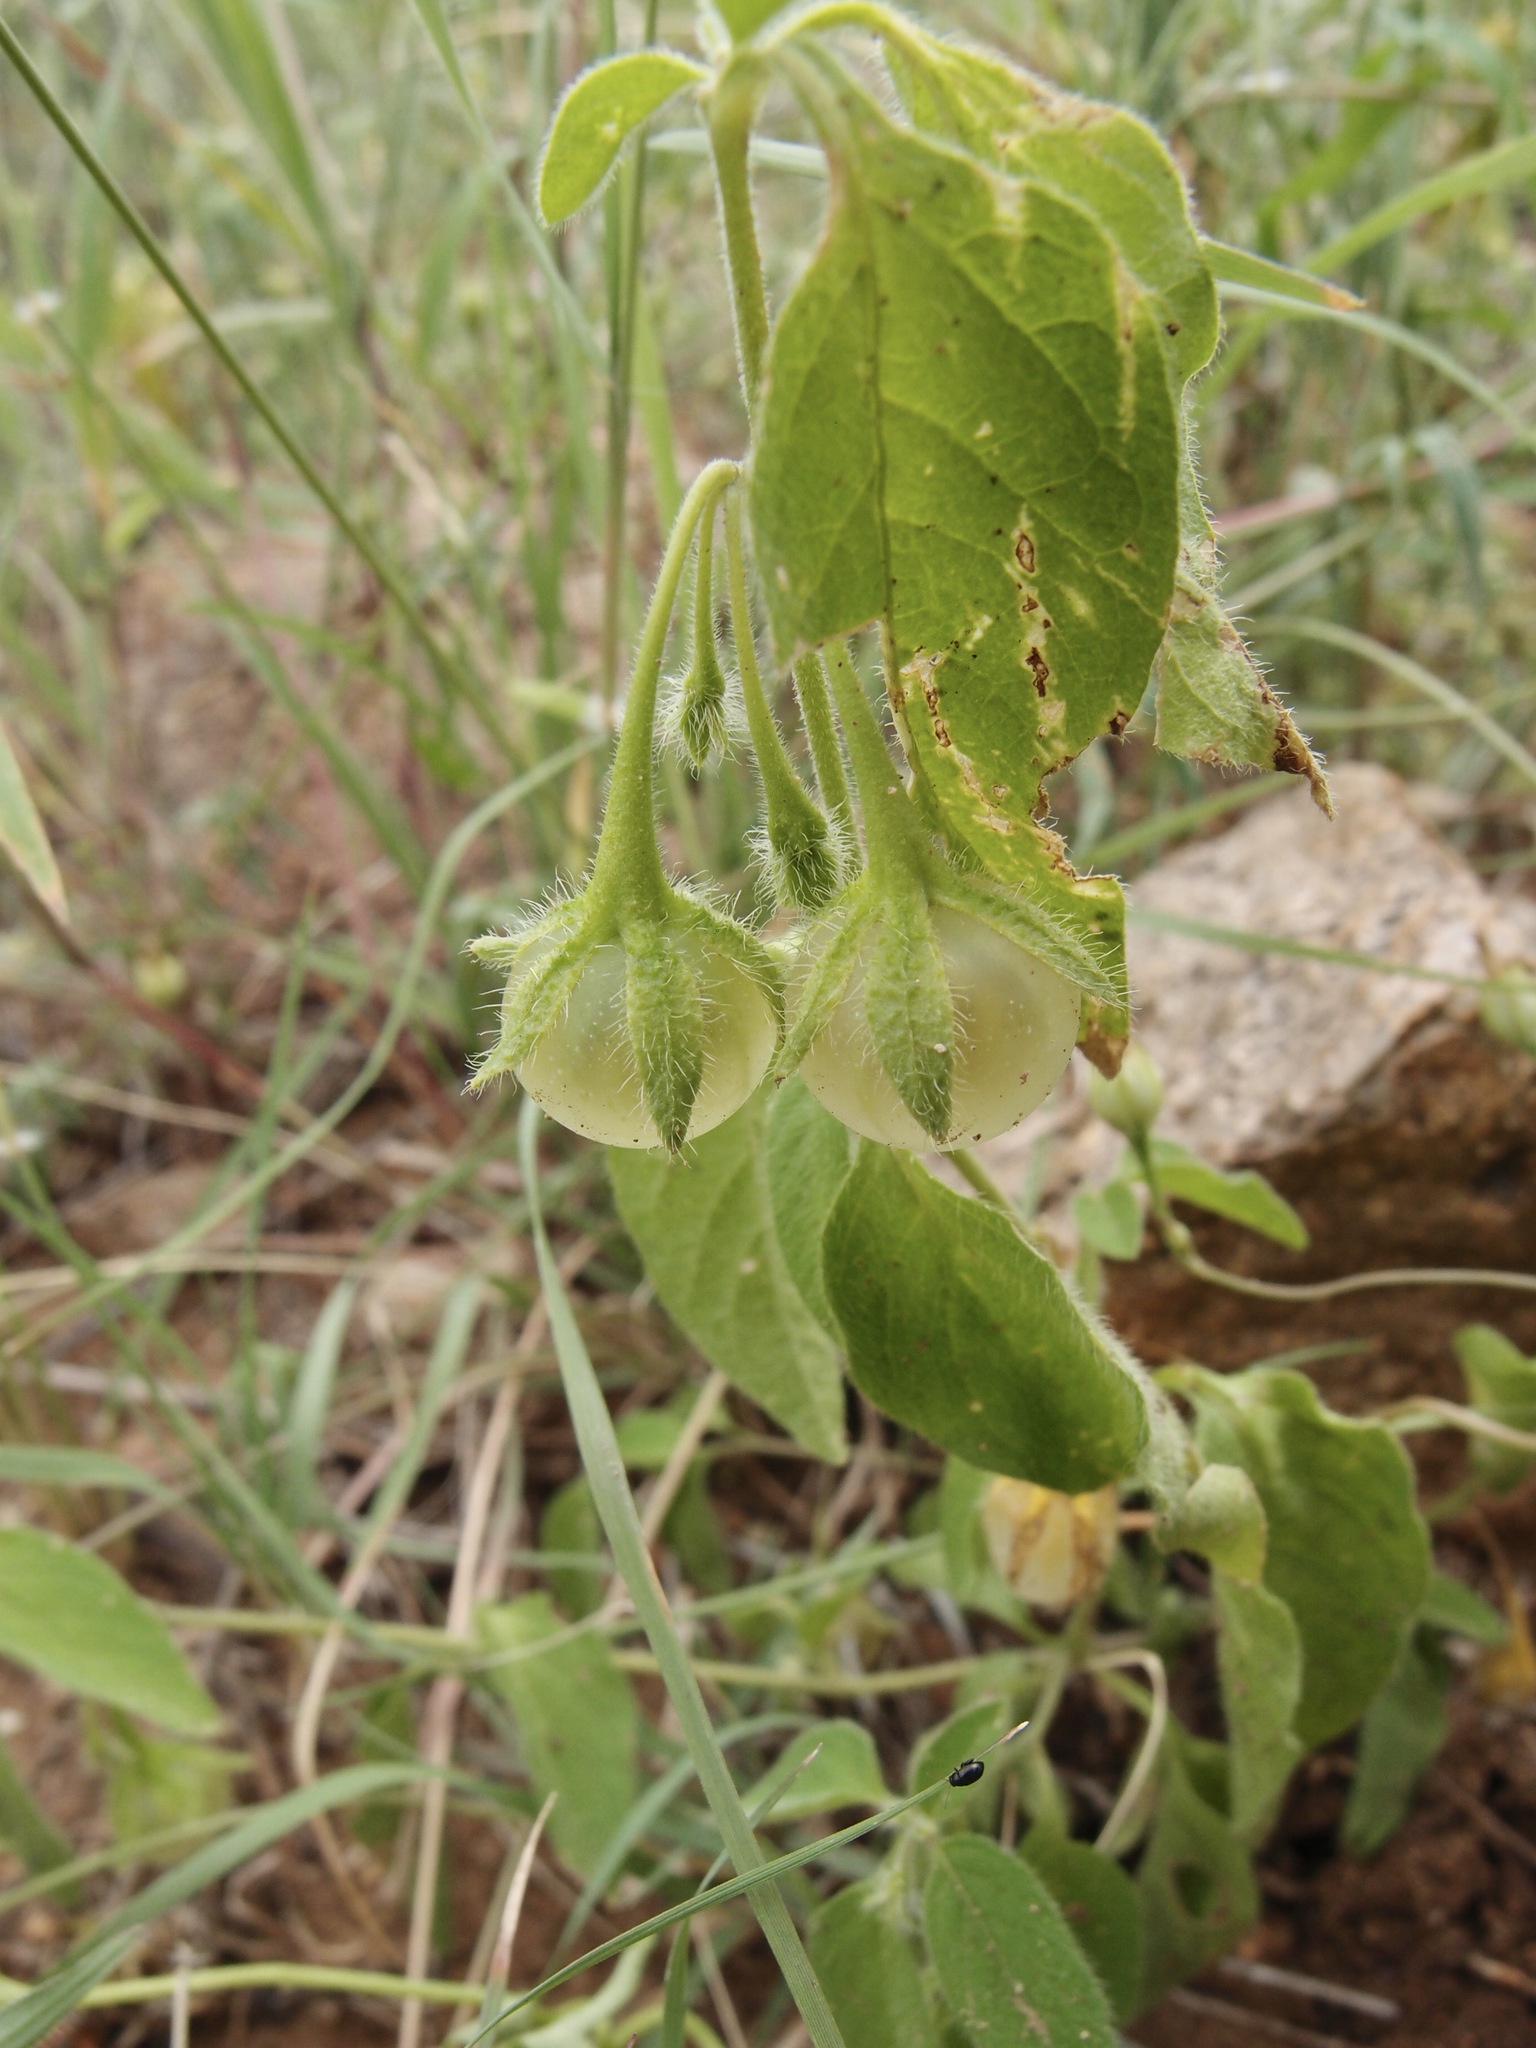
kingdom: Plantae
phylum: Tracheophyta
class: Magnoliopsida
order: Solanales
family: Solanaceae
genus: Solanum
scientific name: Solanum deflexum
